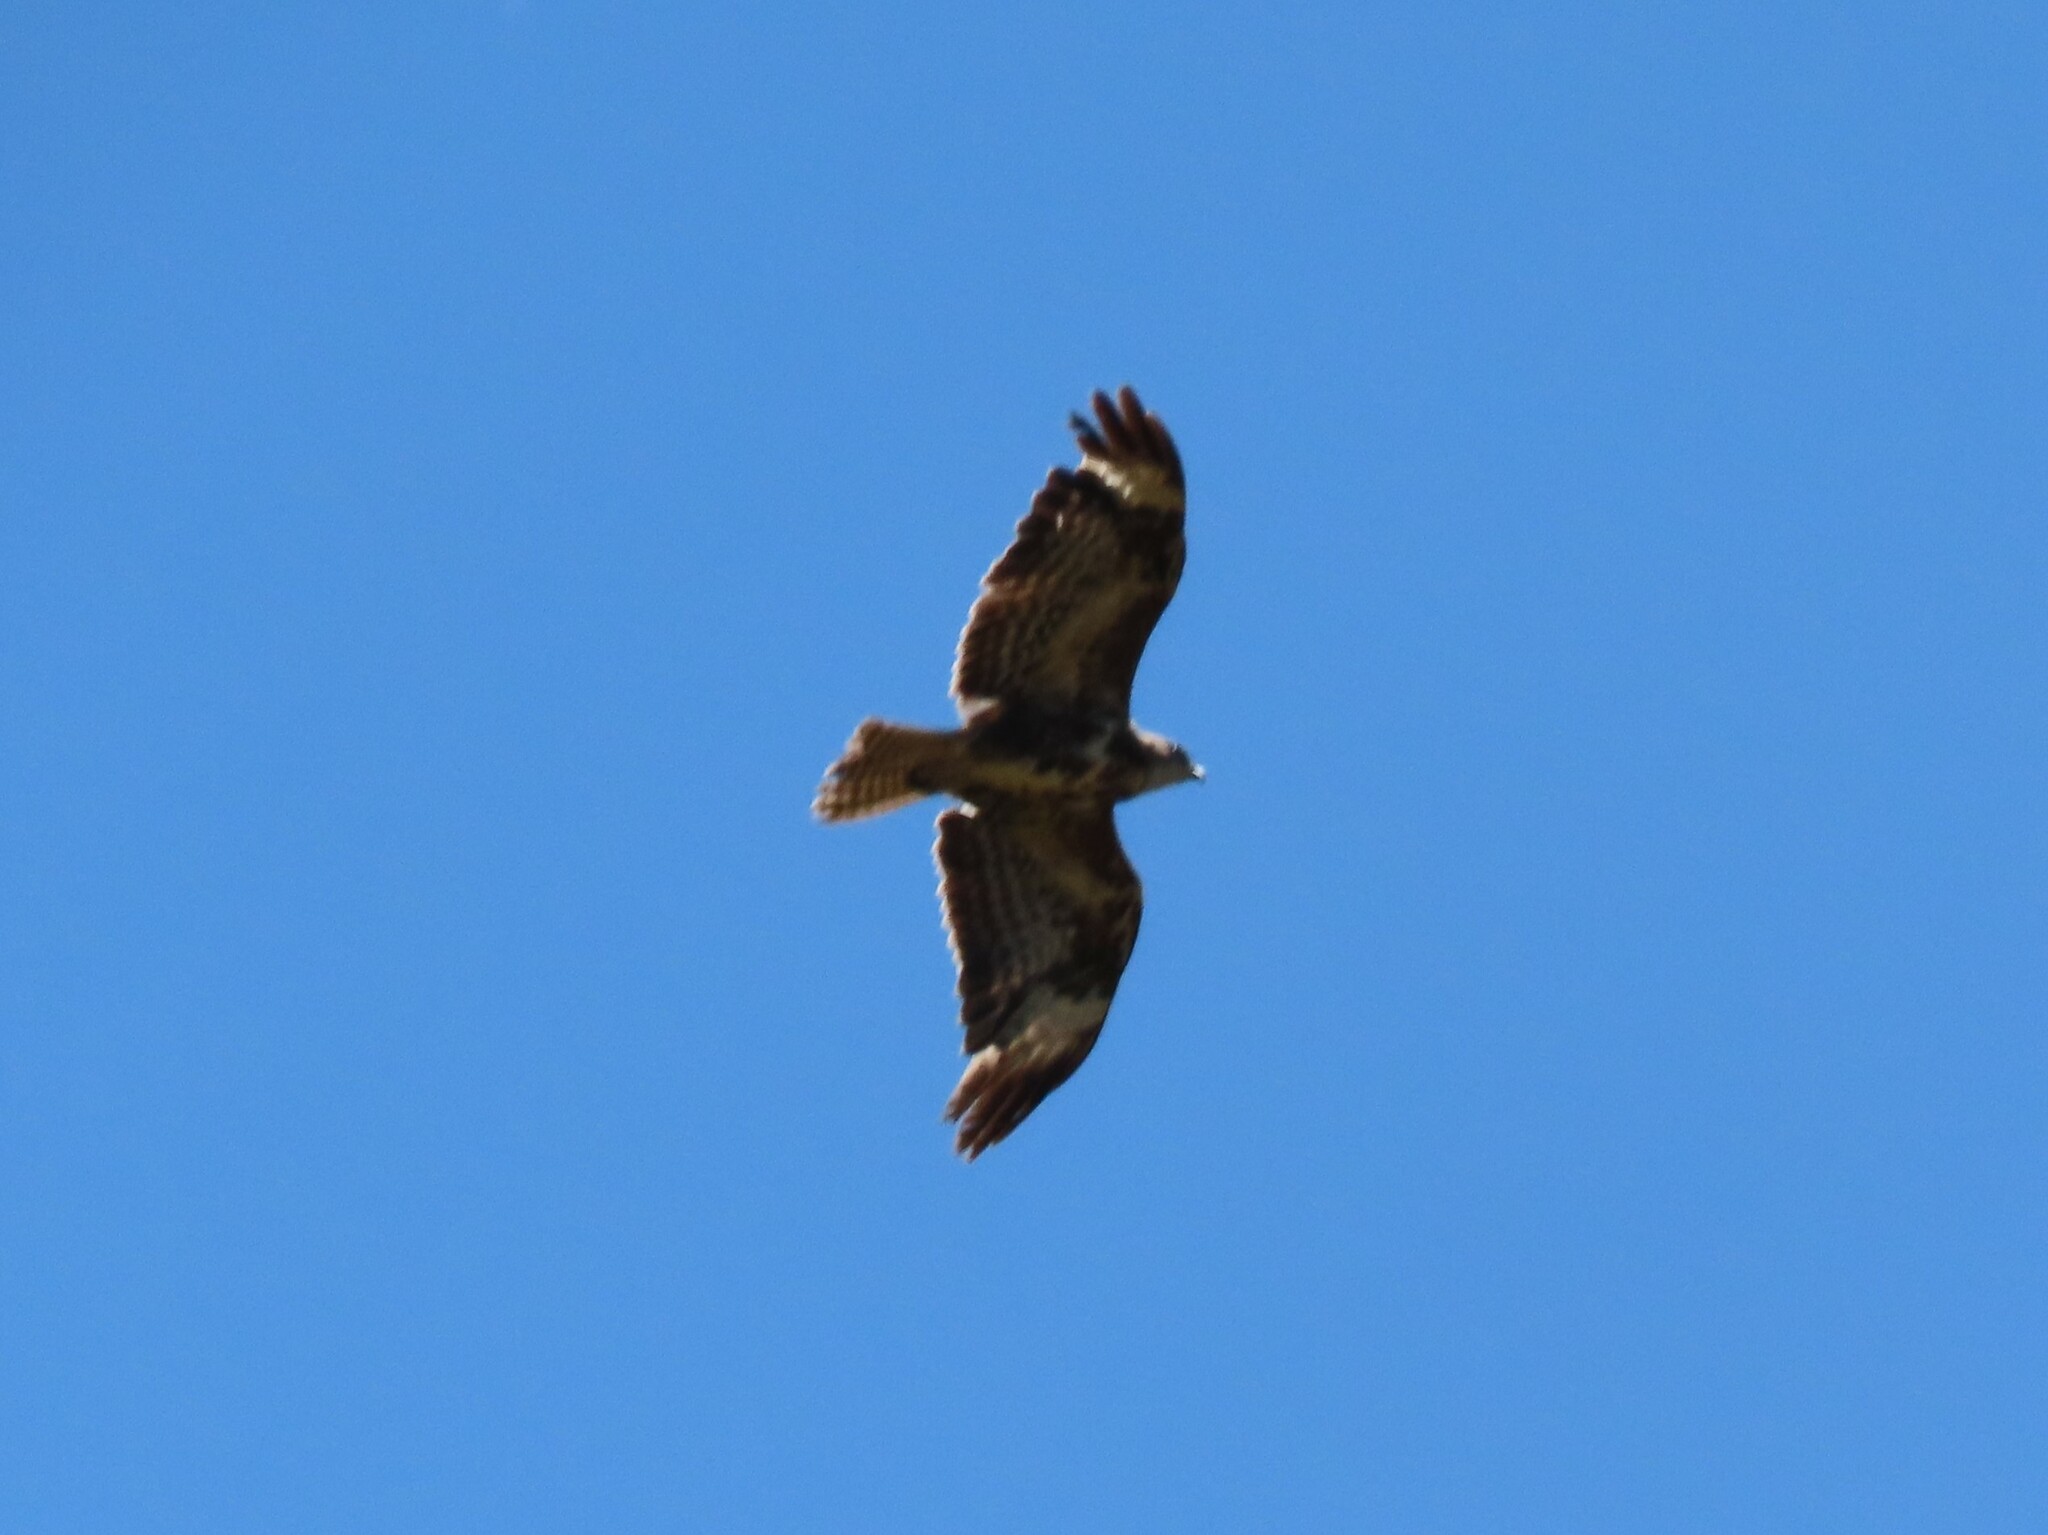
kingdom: Animalia
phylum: Chordata
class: Aves
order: Accipitriformes
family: Accipitridae
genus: Buteo
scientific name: Buteo buteo
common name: Common buzzard
